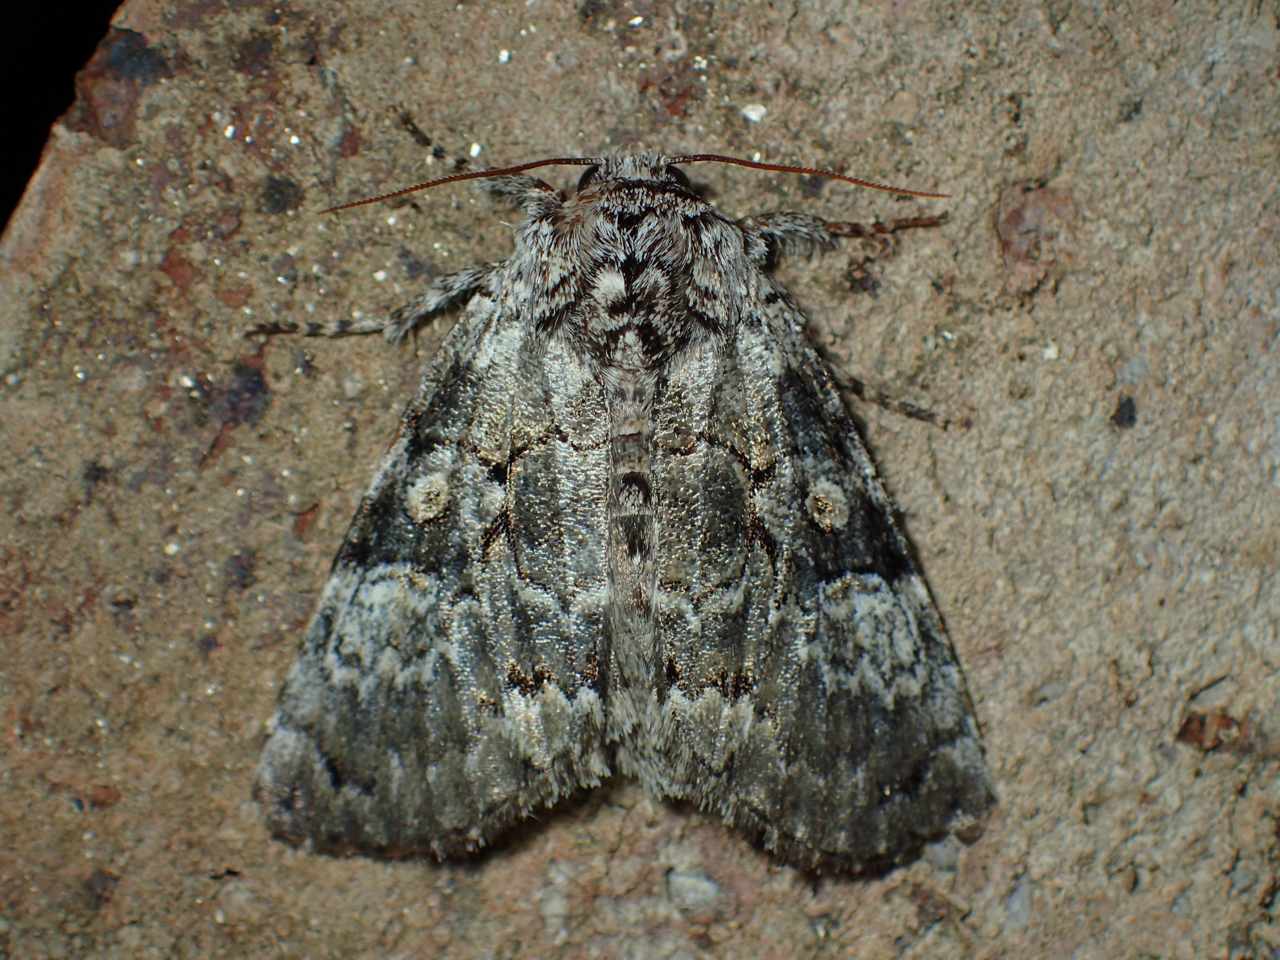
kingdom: Animalia
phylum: Arthropoda
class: Insecta
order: Lepidoptera
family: Noctuidae
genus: Charadra
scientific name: Charadra deridens
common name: Marbled tuffet
